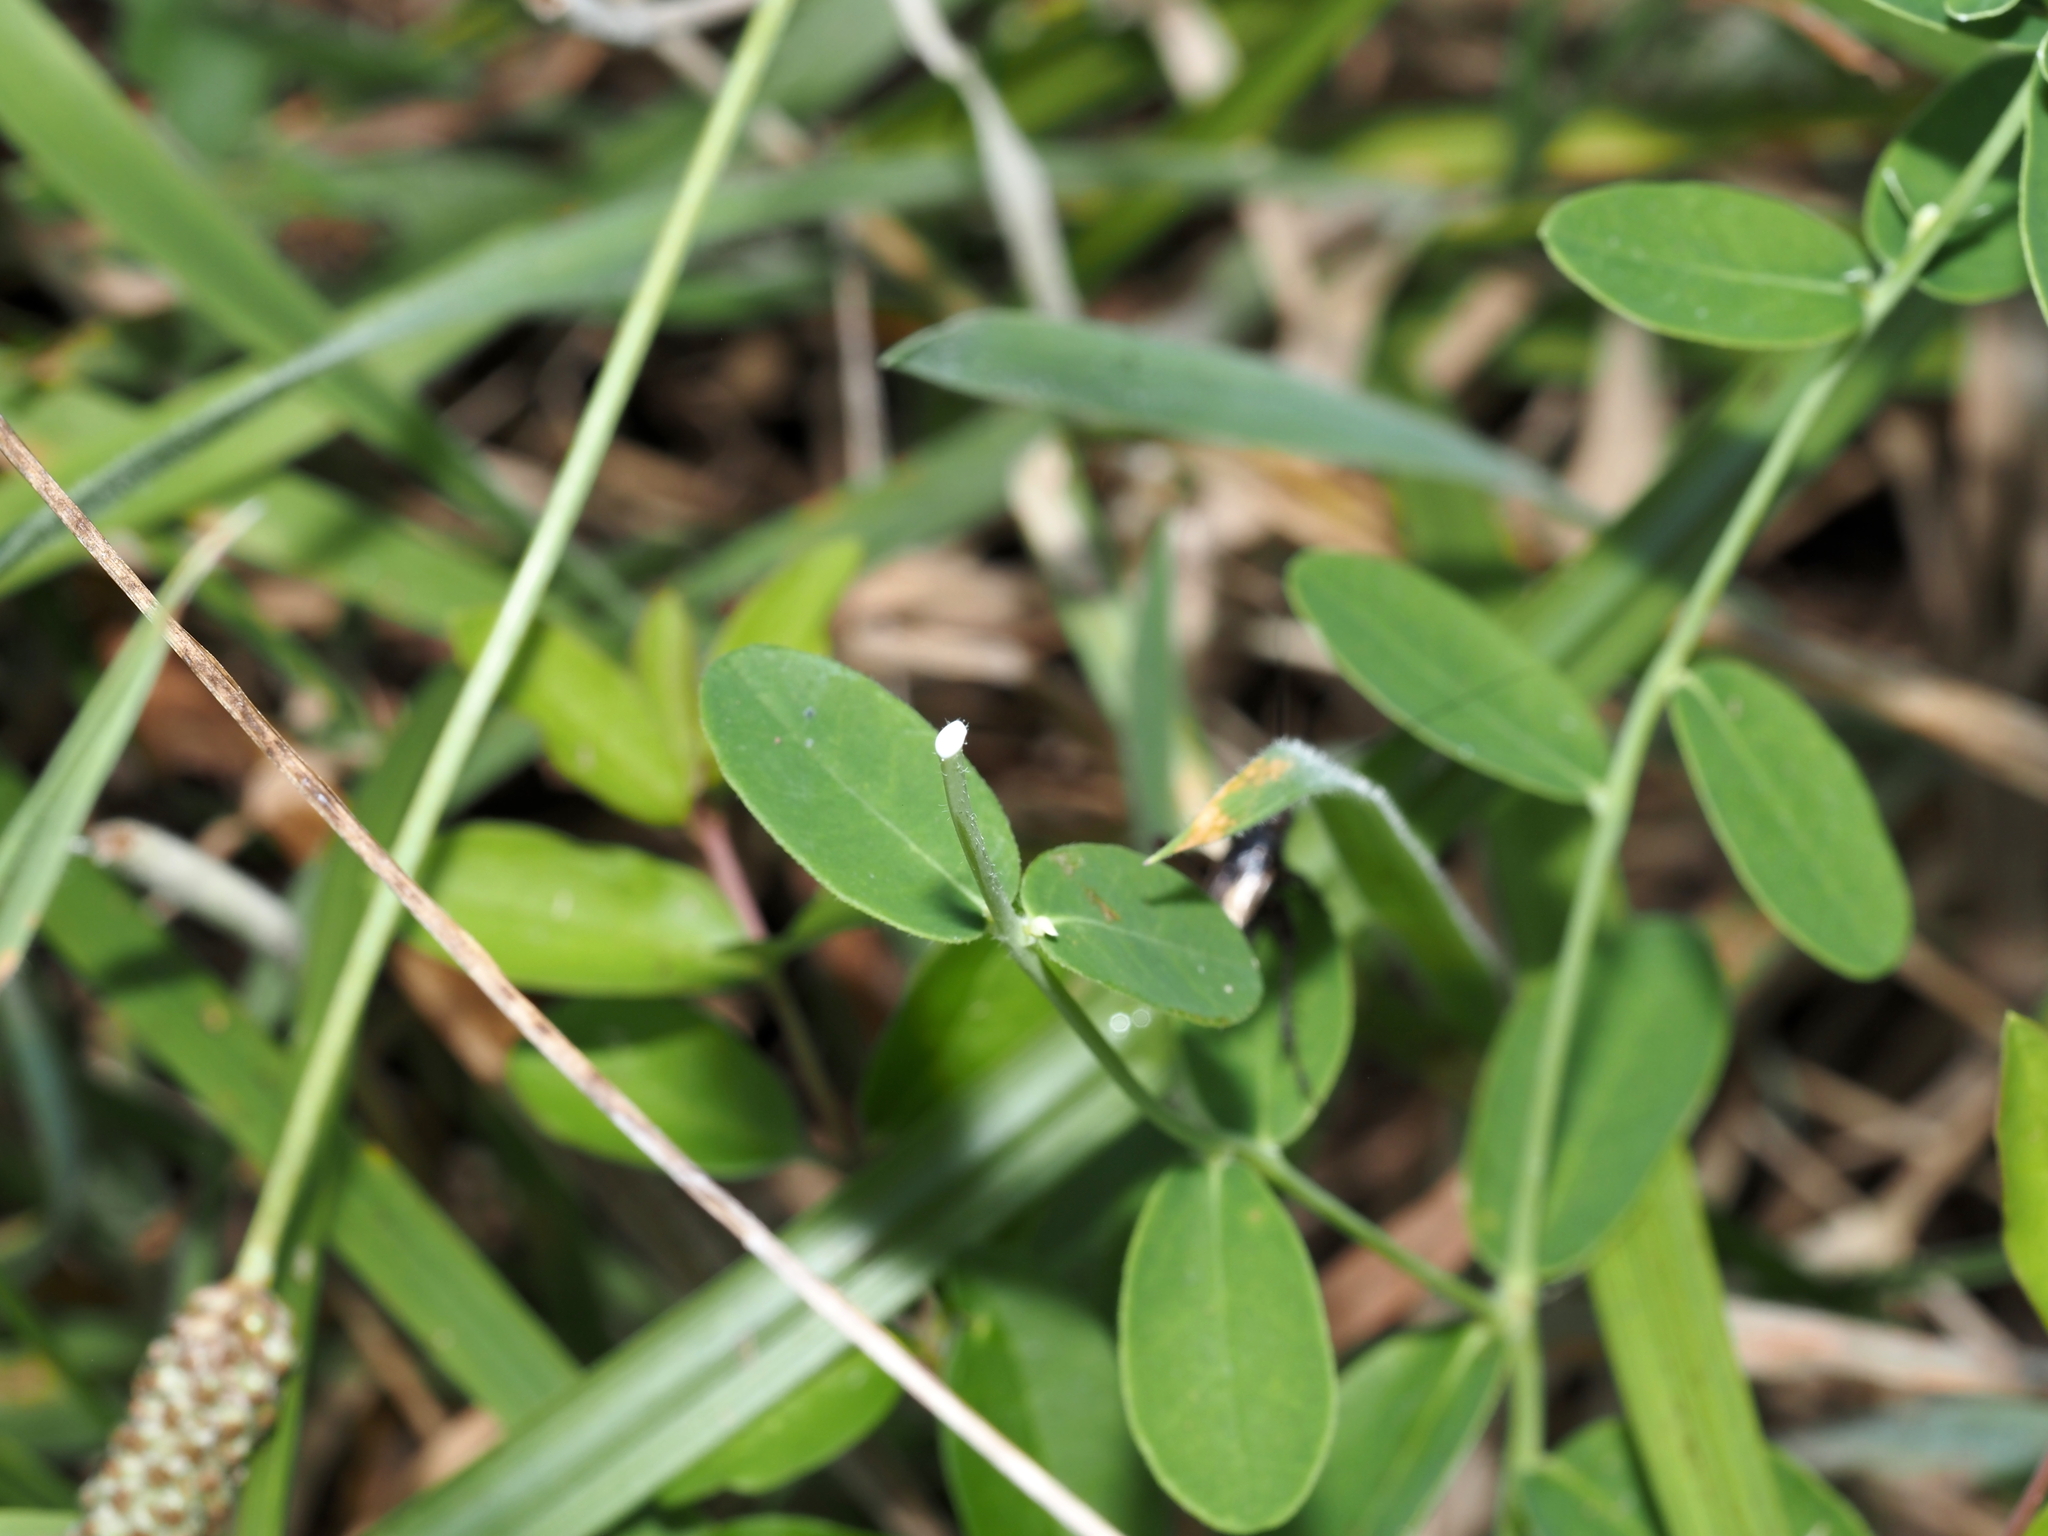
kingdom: Plantae
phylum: Tracheophyta
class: Magnoliopsida
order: Malpighiales
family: Euphorbiaceae
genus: Euphorbia
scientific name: Euphorbia corollata
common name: Flowering spurge
